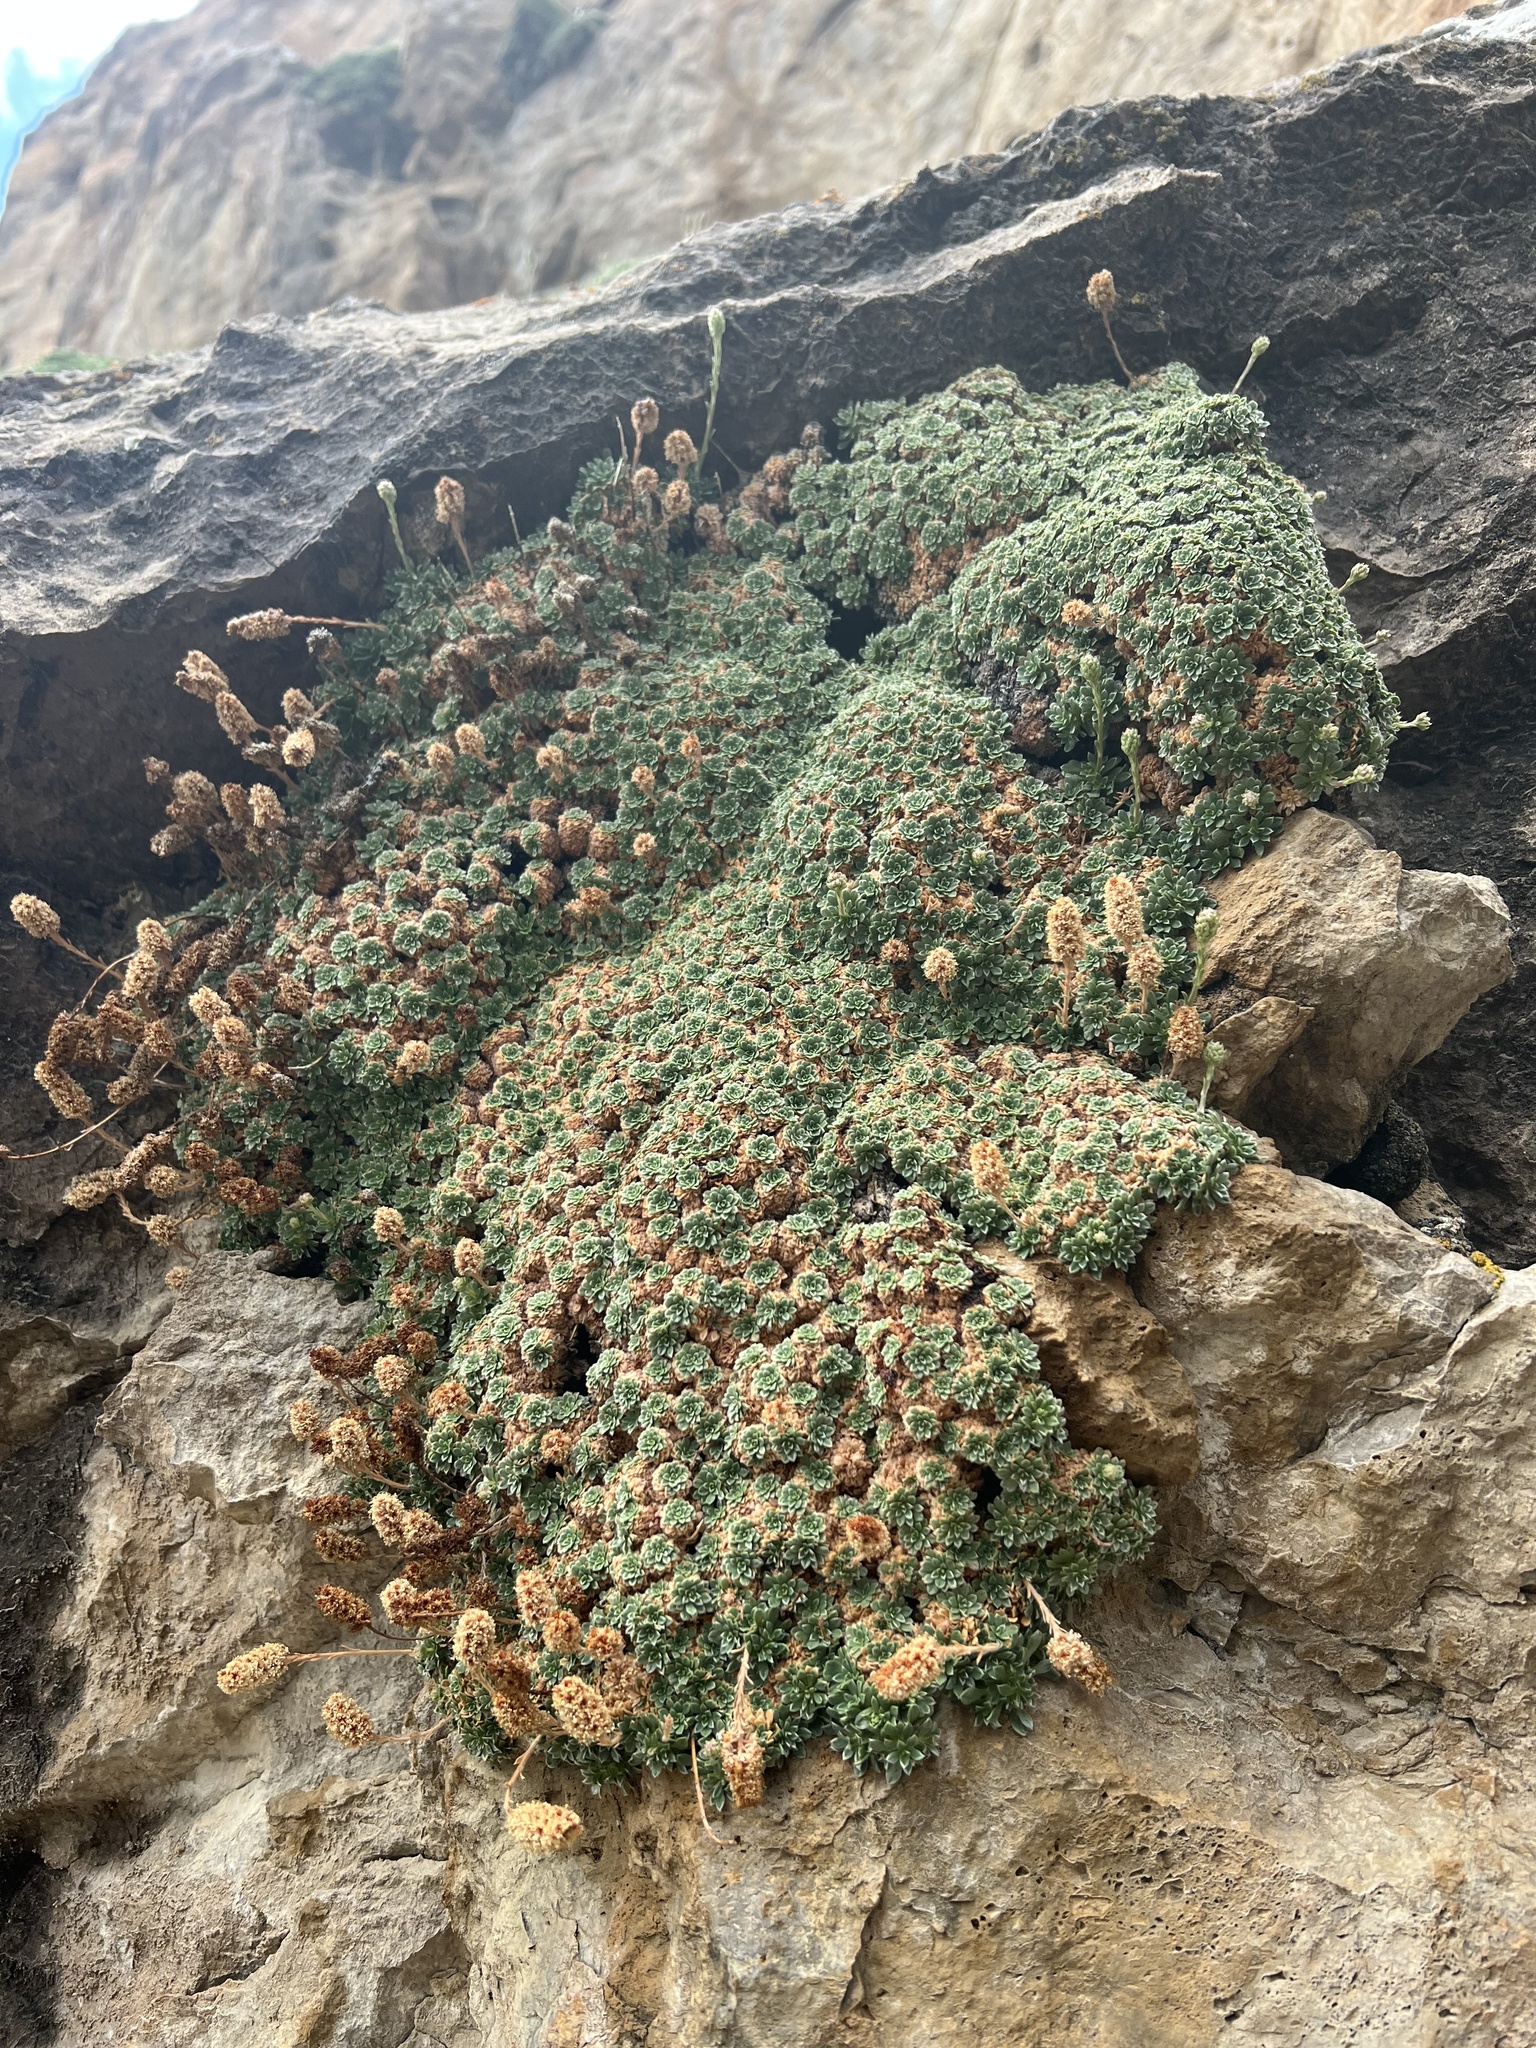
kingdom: Plantae
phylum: Tracheophyta
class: Magnoliopsida
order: Rosales
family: Rosaceae
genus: Petrophytum
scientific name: Petrophytum caespitosum
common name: Mat rockspirea
